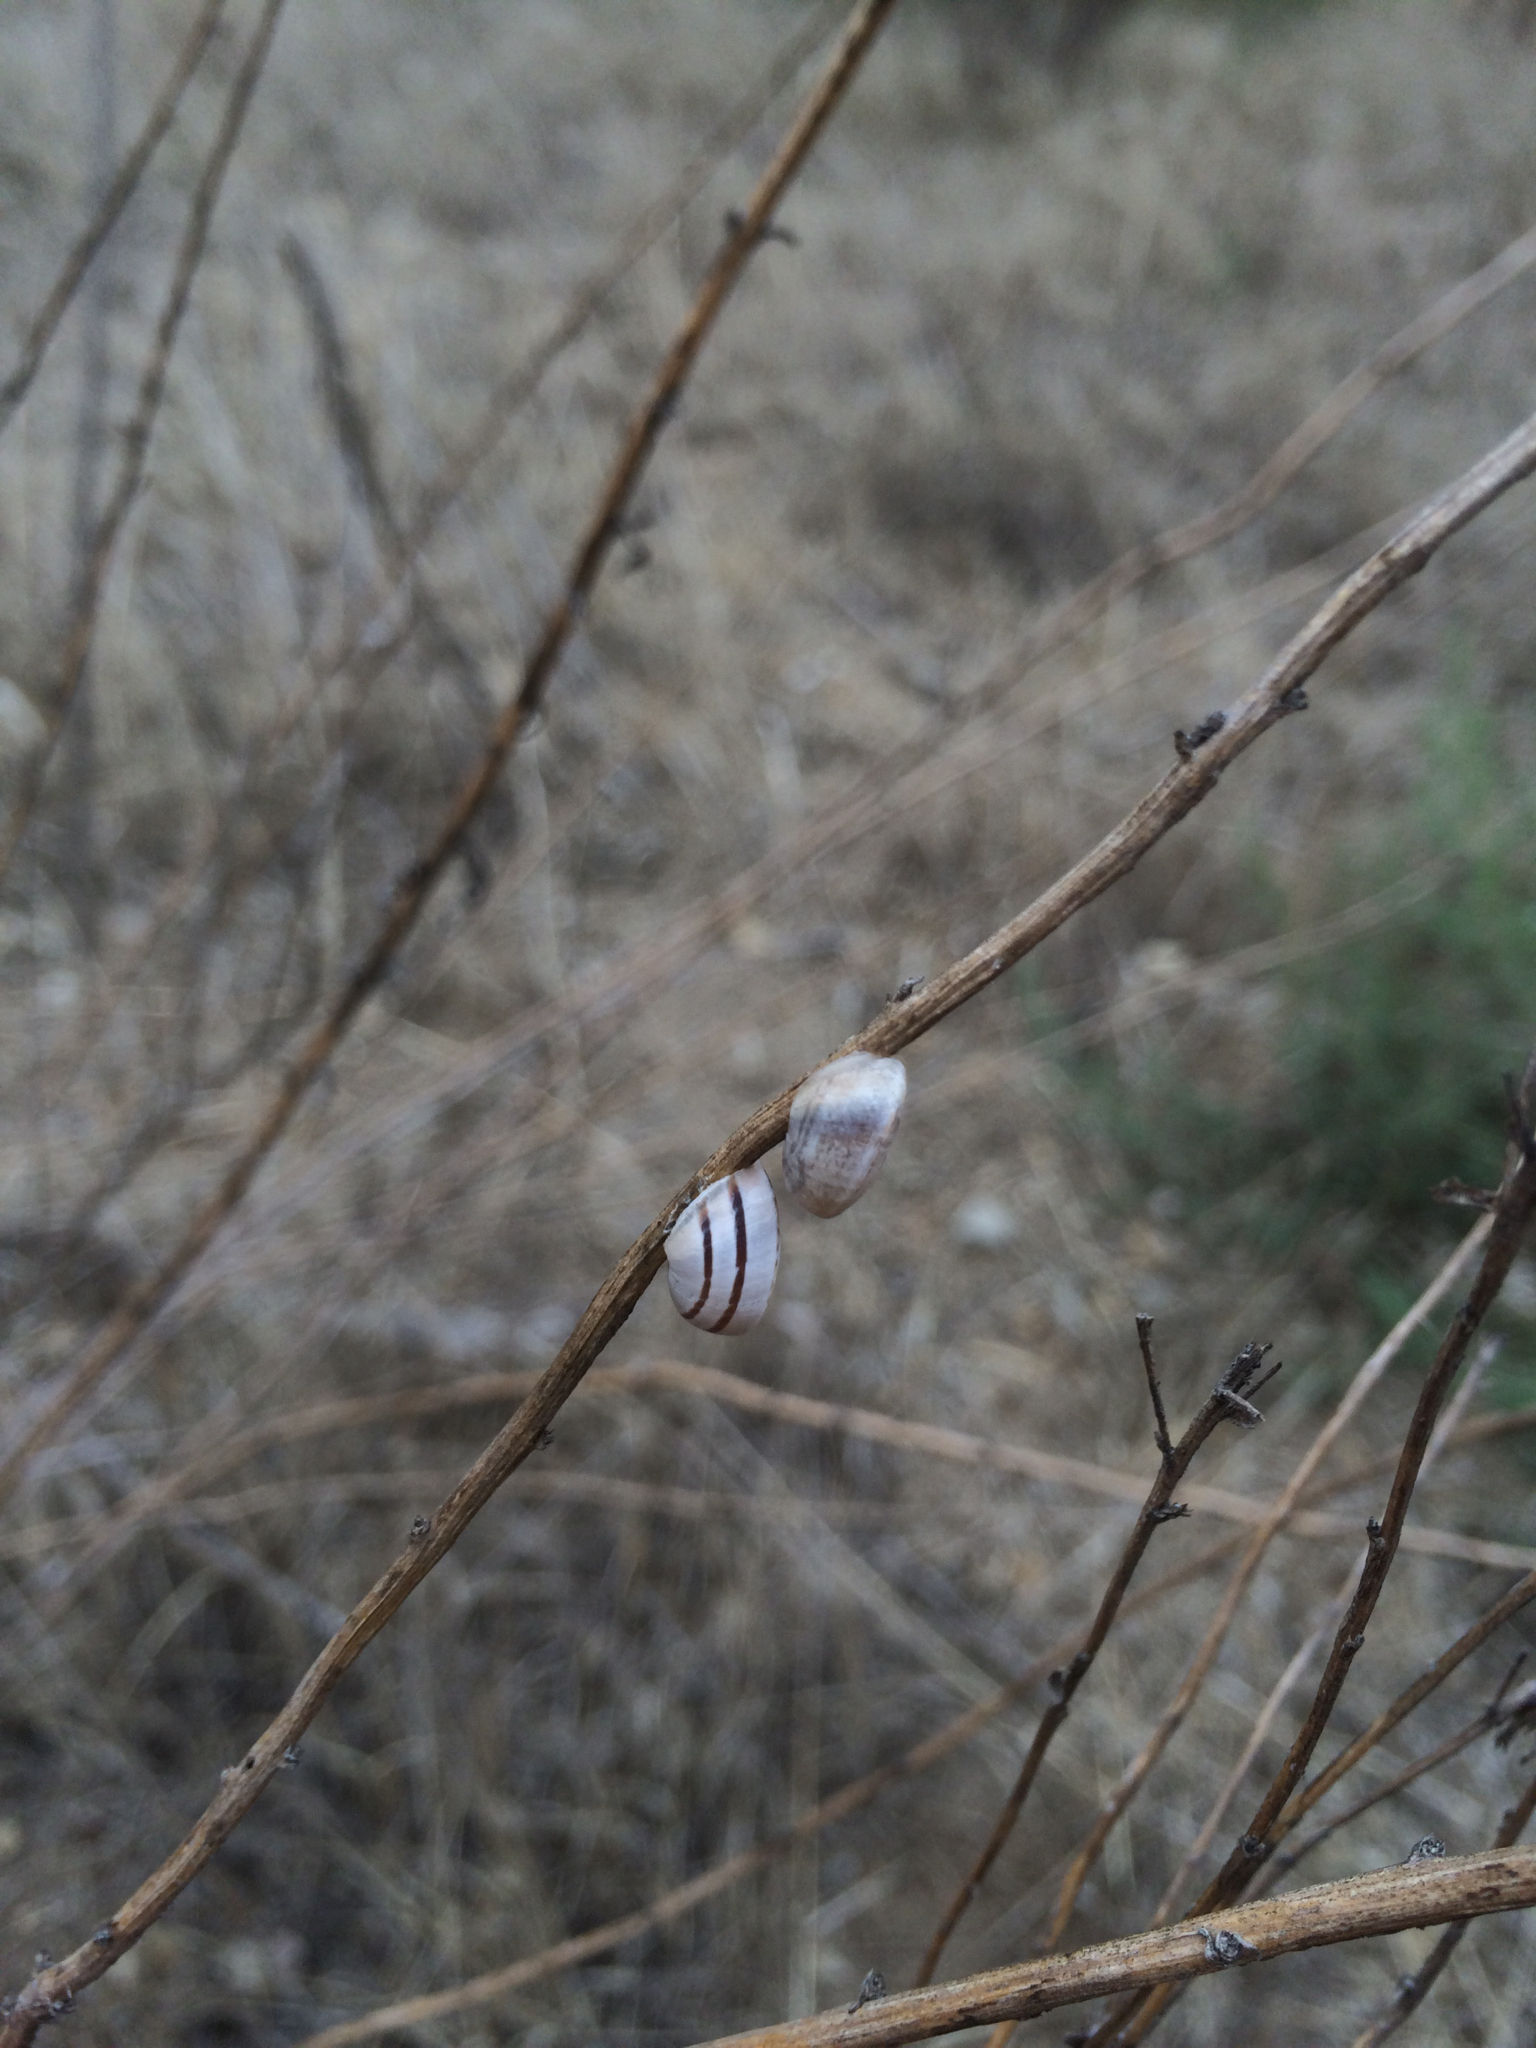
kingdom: Animalia
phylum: Mollusca
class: Gastropoda
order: Stylommatophora
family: Helicidae
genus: Otala
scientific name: Otala lactea
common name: Milk snail
